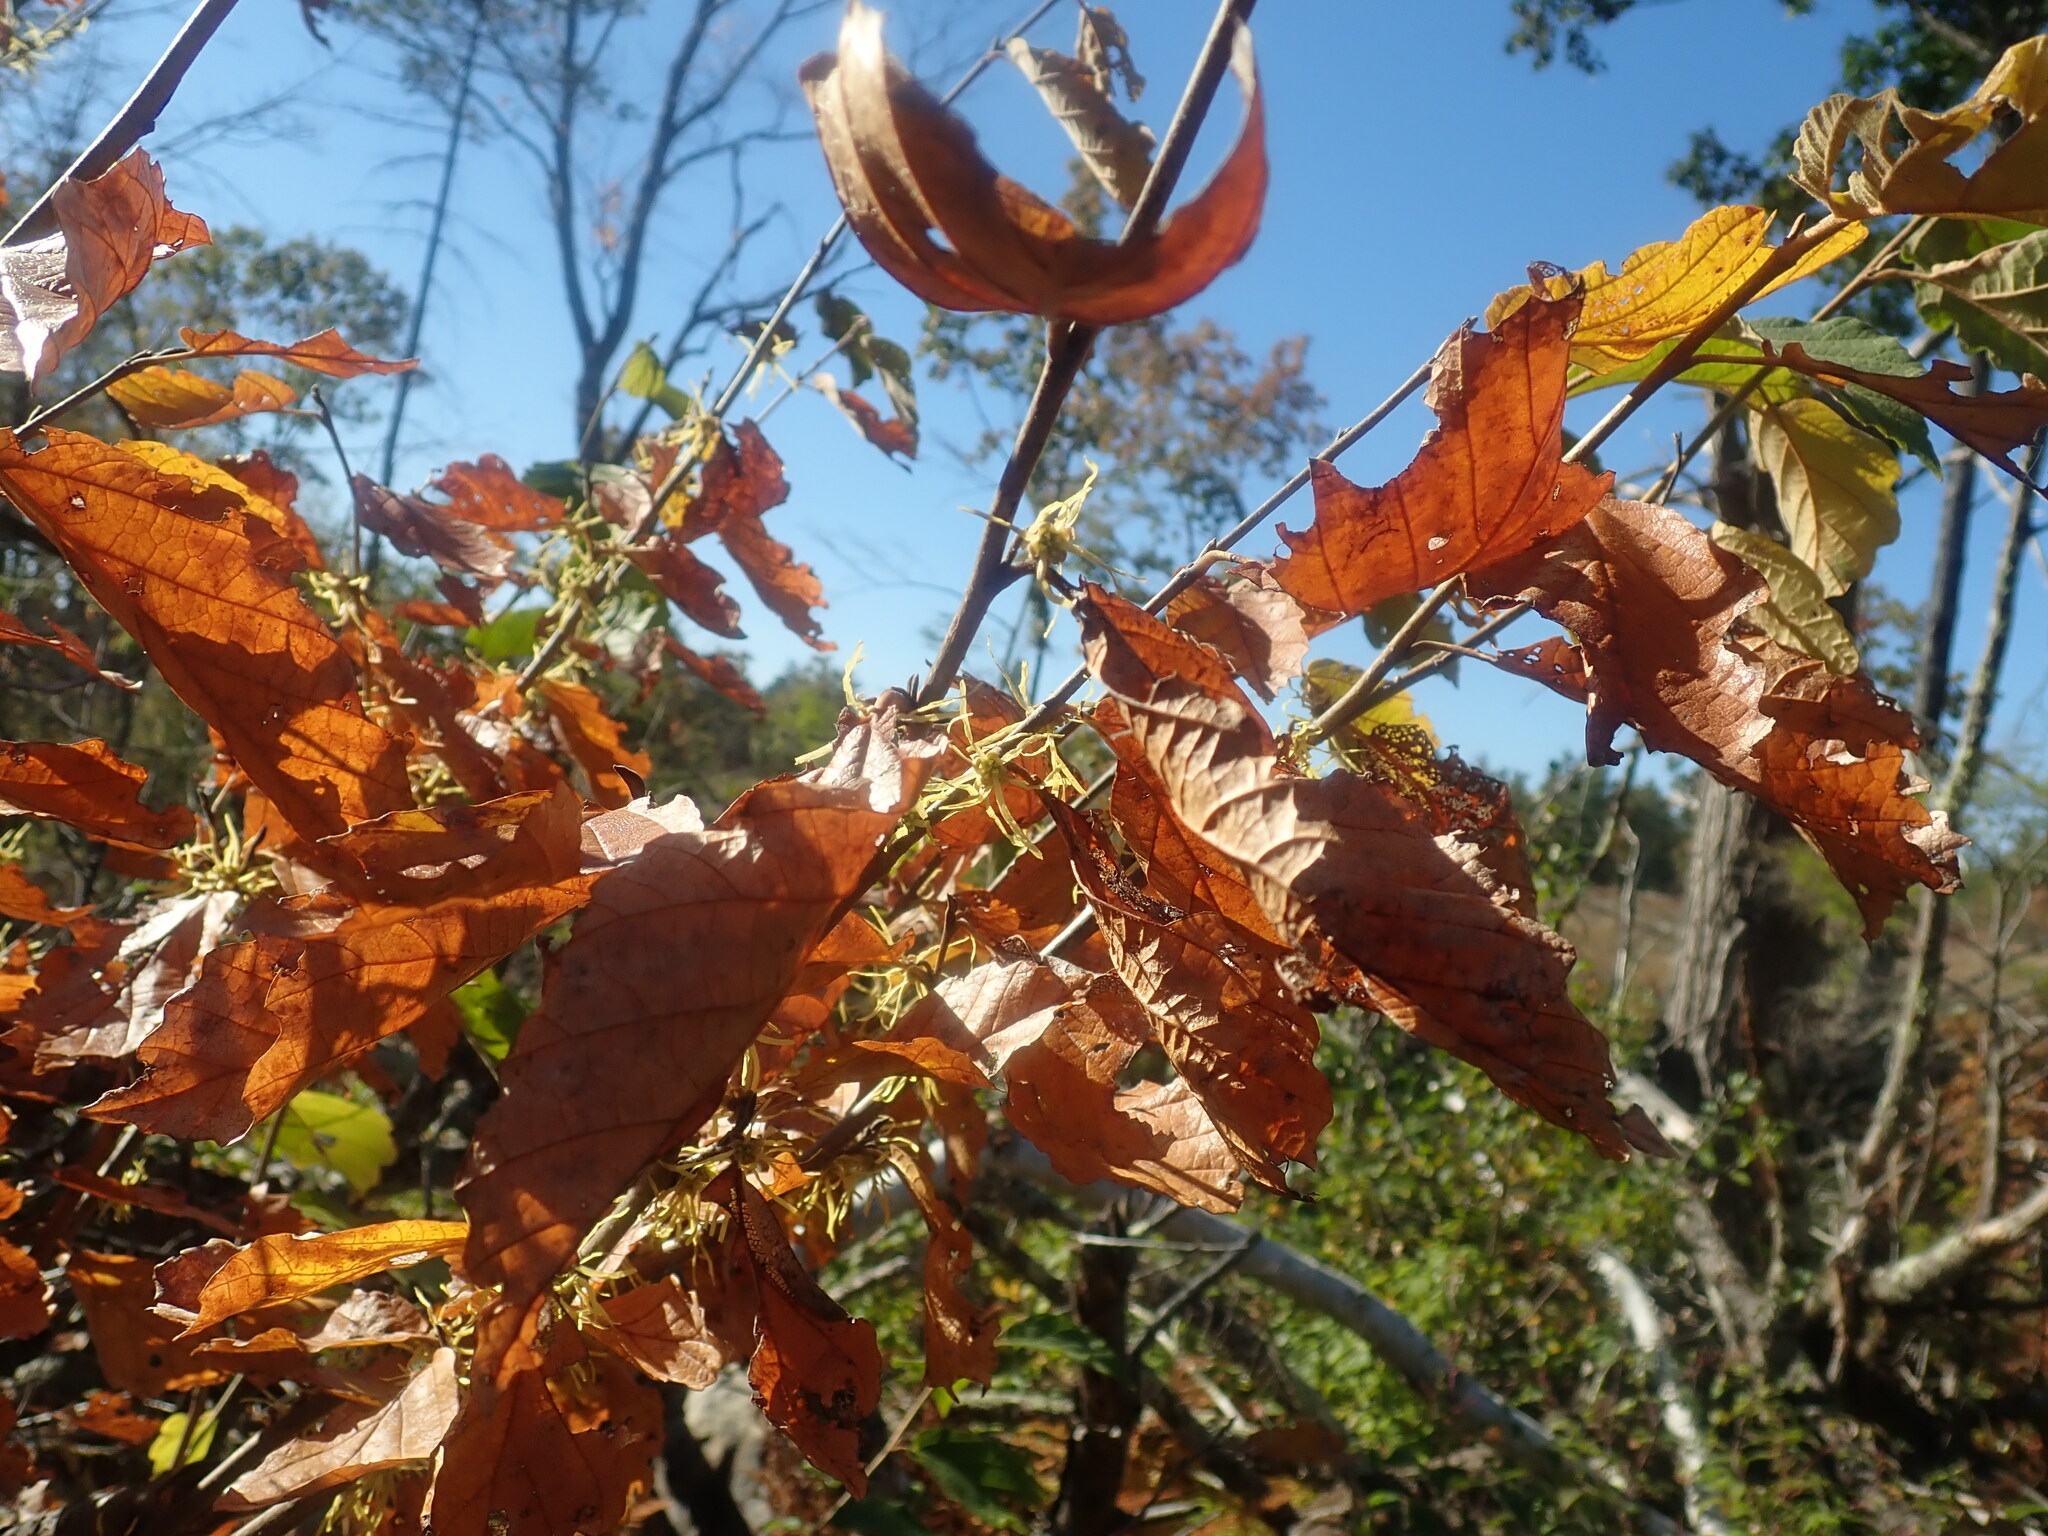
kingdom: Plantae
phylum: Tracheophyta
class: Magnoliopsida
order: Saxifragales
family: Hamamelidaceae
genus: Hamamelis
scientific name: Hamamelis virginiana
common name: Witch-hazel
